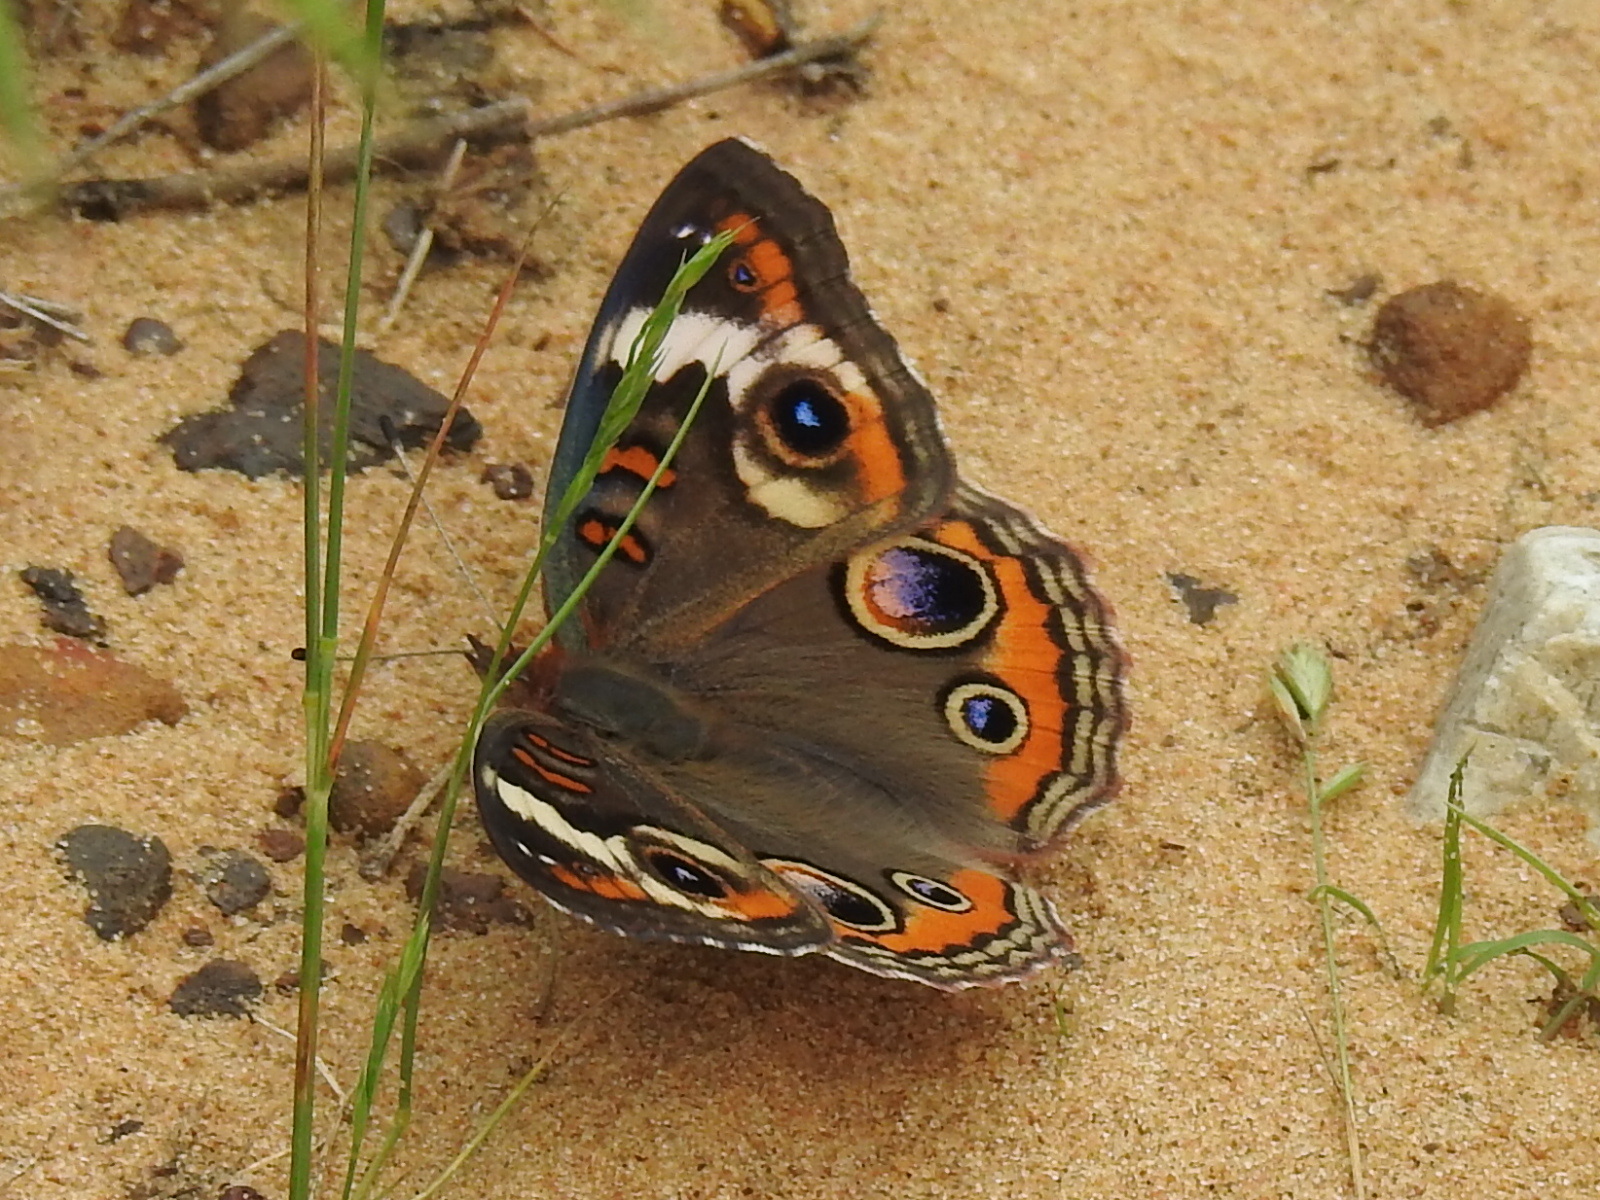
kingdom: Animalia
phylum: Arthropoda
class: Insecta
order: Lepidoptera
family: Nymphalidae
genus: Junonia
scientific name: Junonia coenia
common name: Common buckeye
